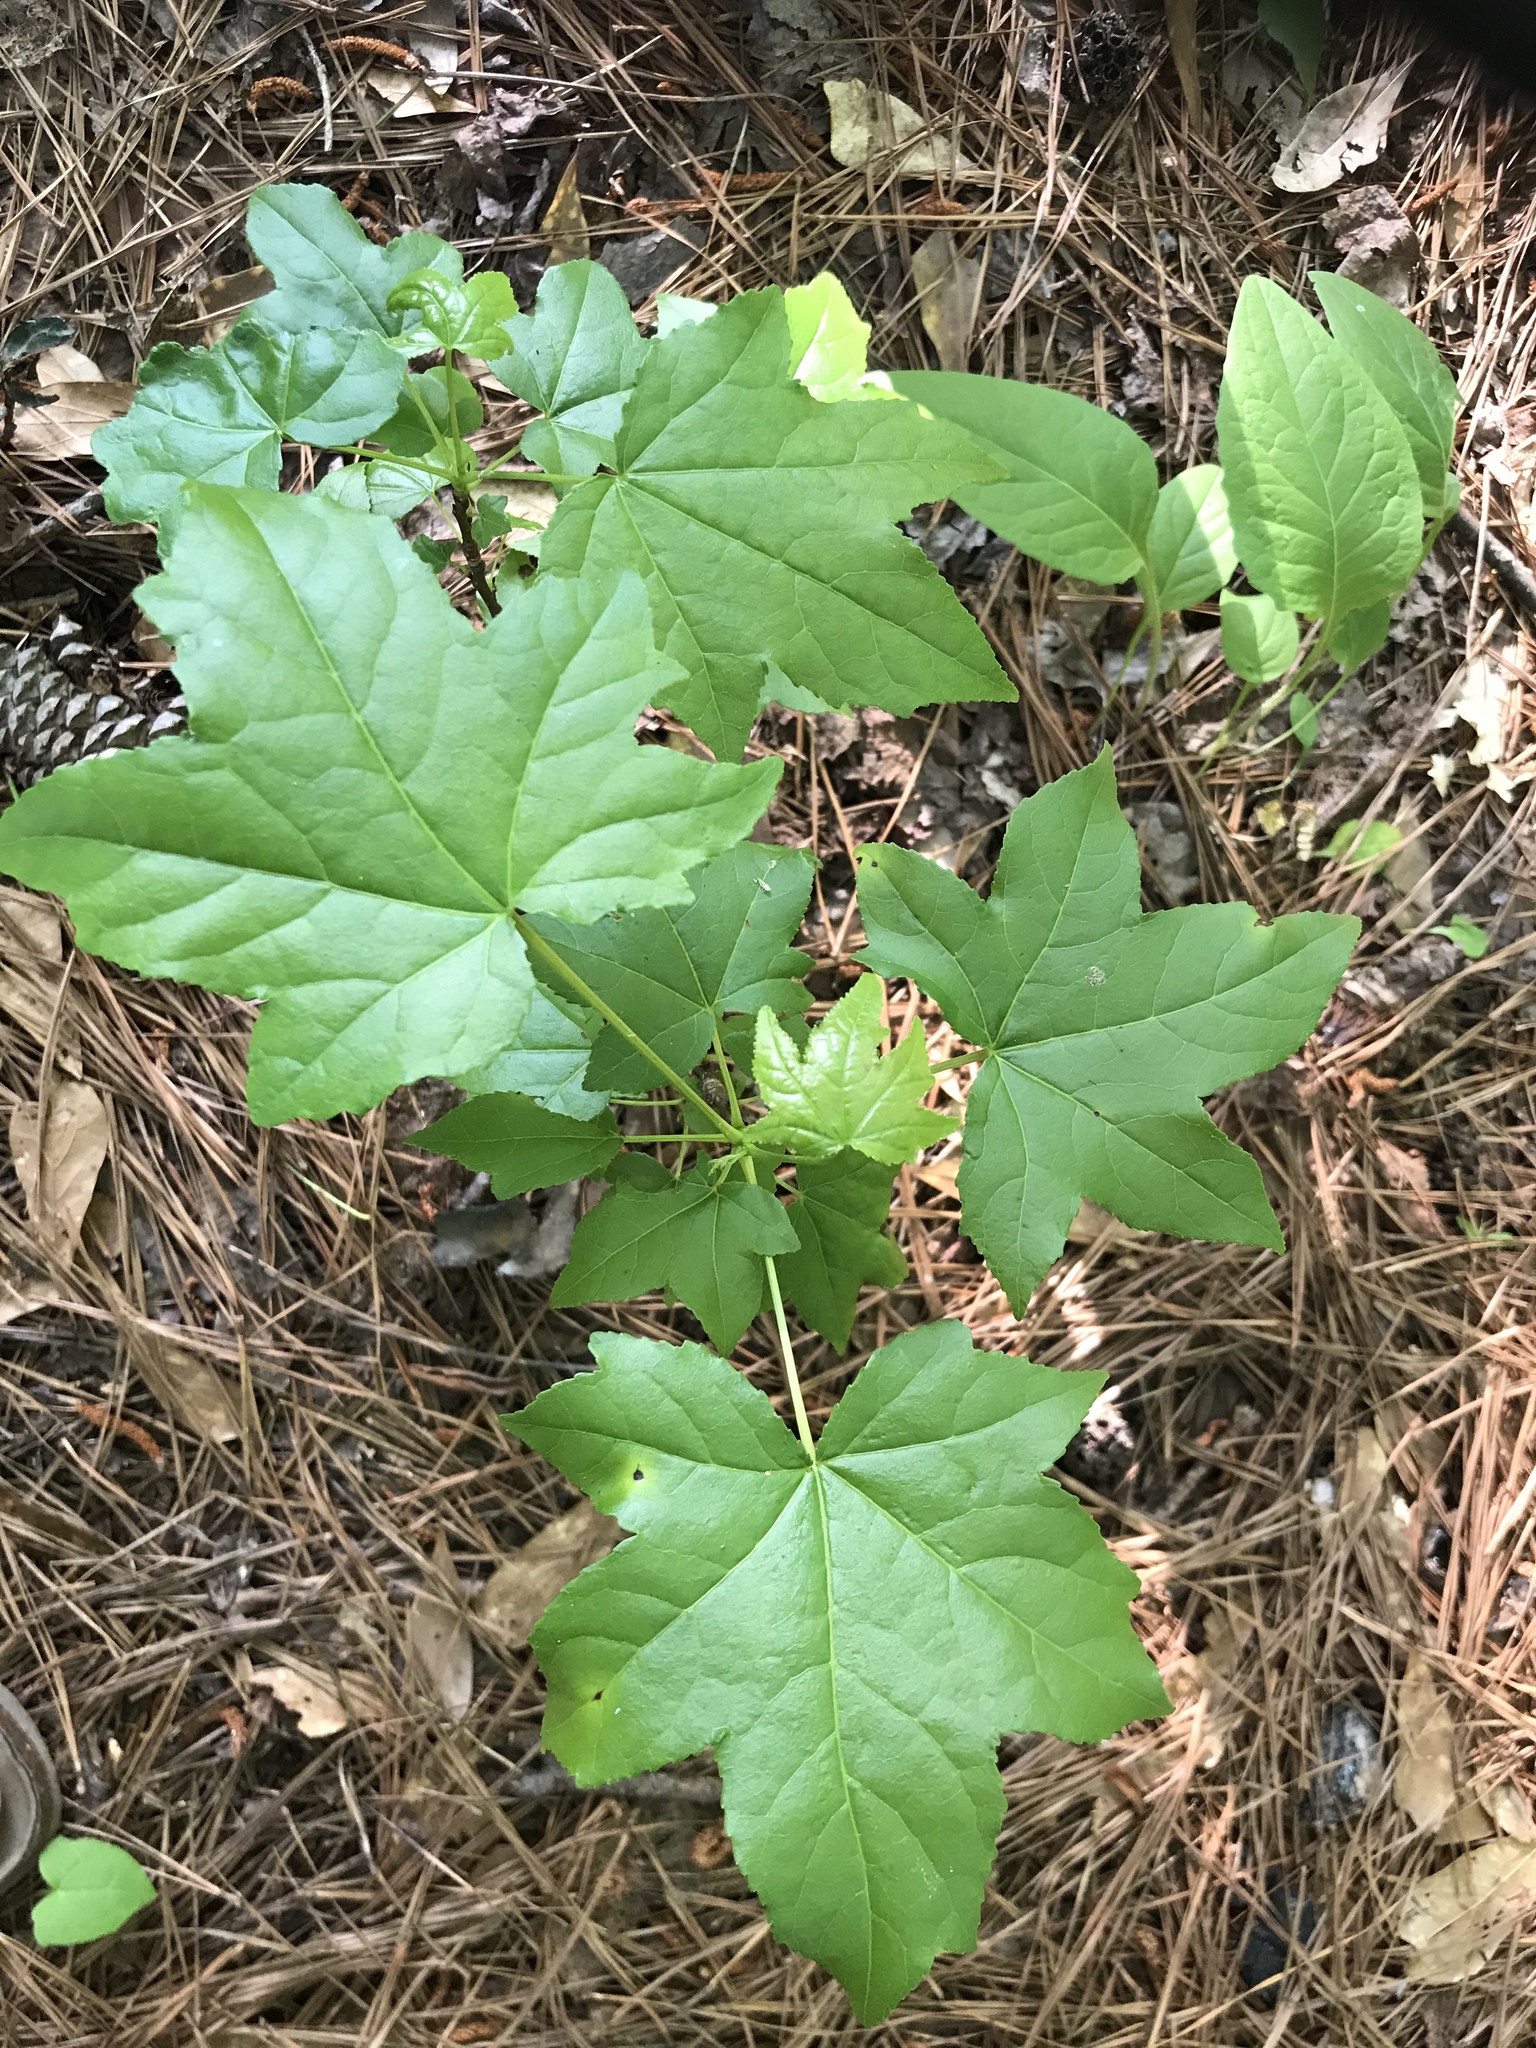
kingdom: Plantae
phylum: Tracheophyta
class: Magnoliopsida
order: Saxifragales
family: Altingiaceae
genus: Liquidambar
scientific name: Liquidambar styraciflua
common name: Sweet gum
